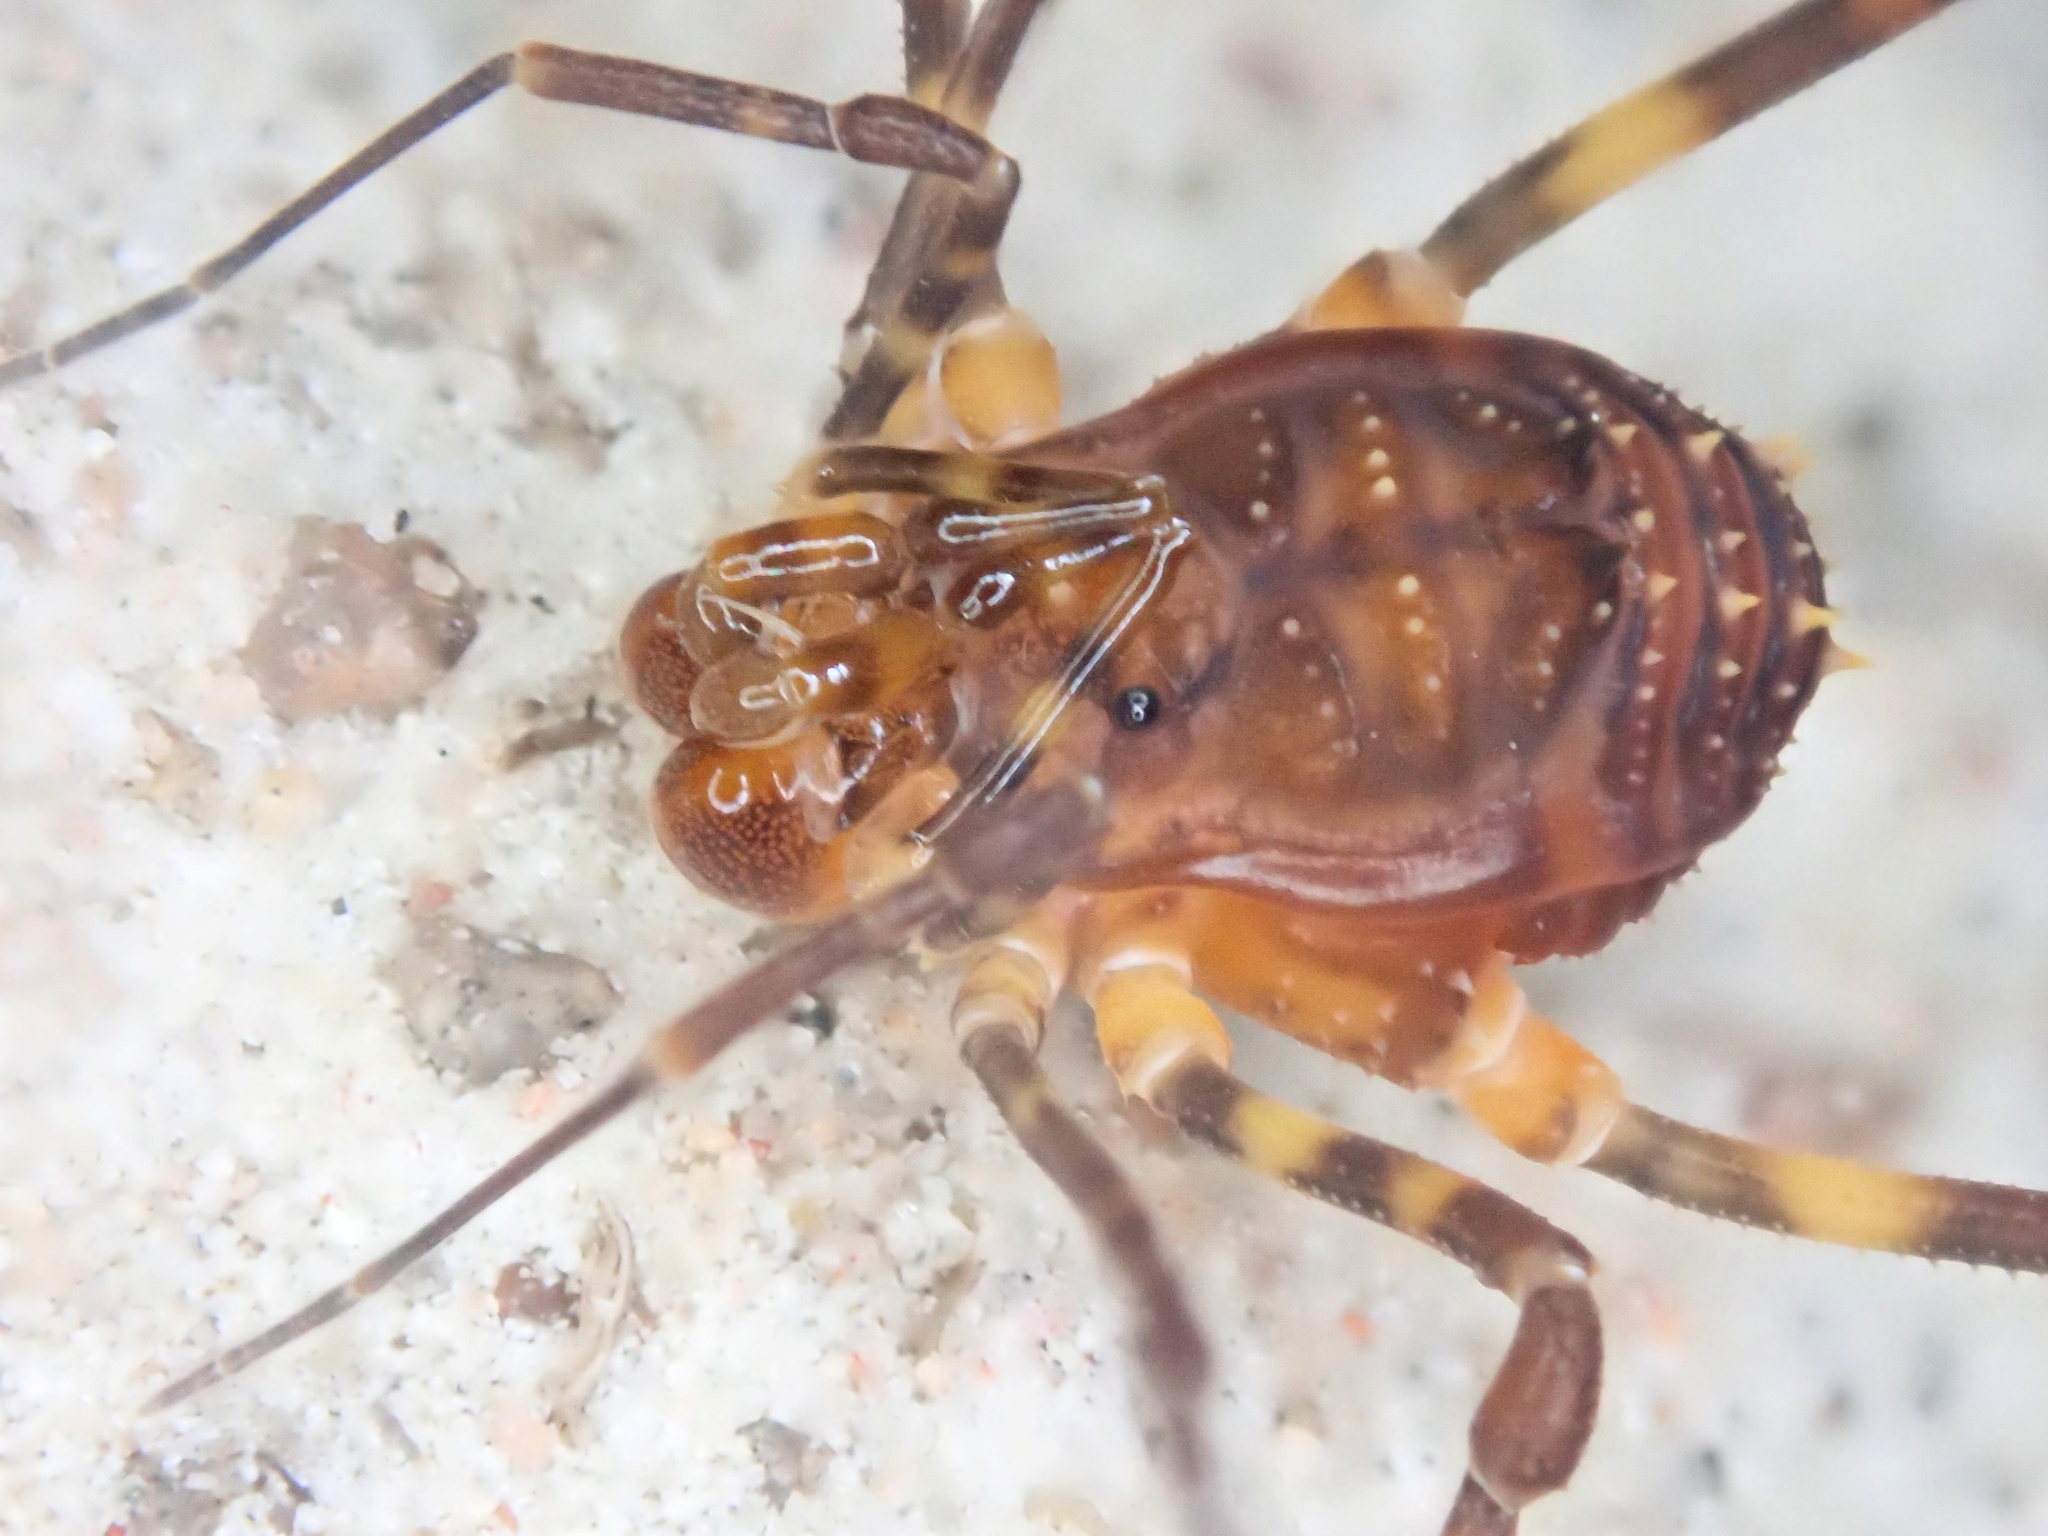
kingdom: Animalia
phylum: Arthropoda
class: Arachnida
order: Opiliones
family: Stygnidae
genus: Stygnus
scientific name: Stygnus polyacanthus
